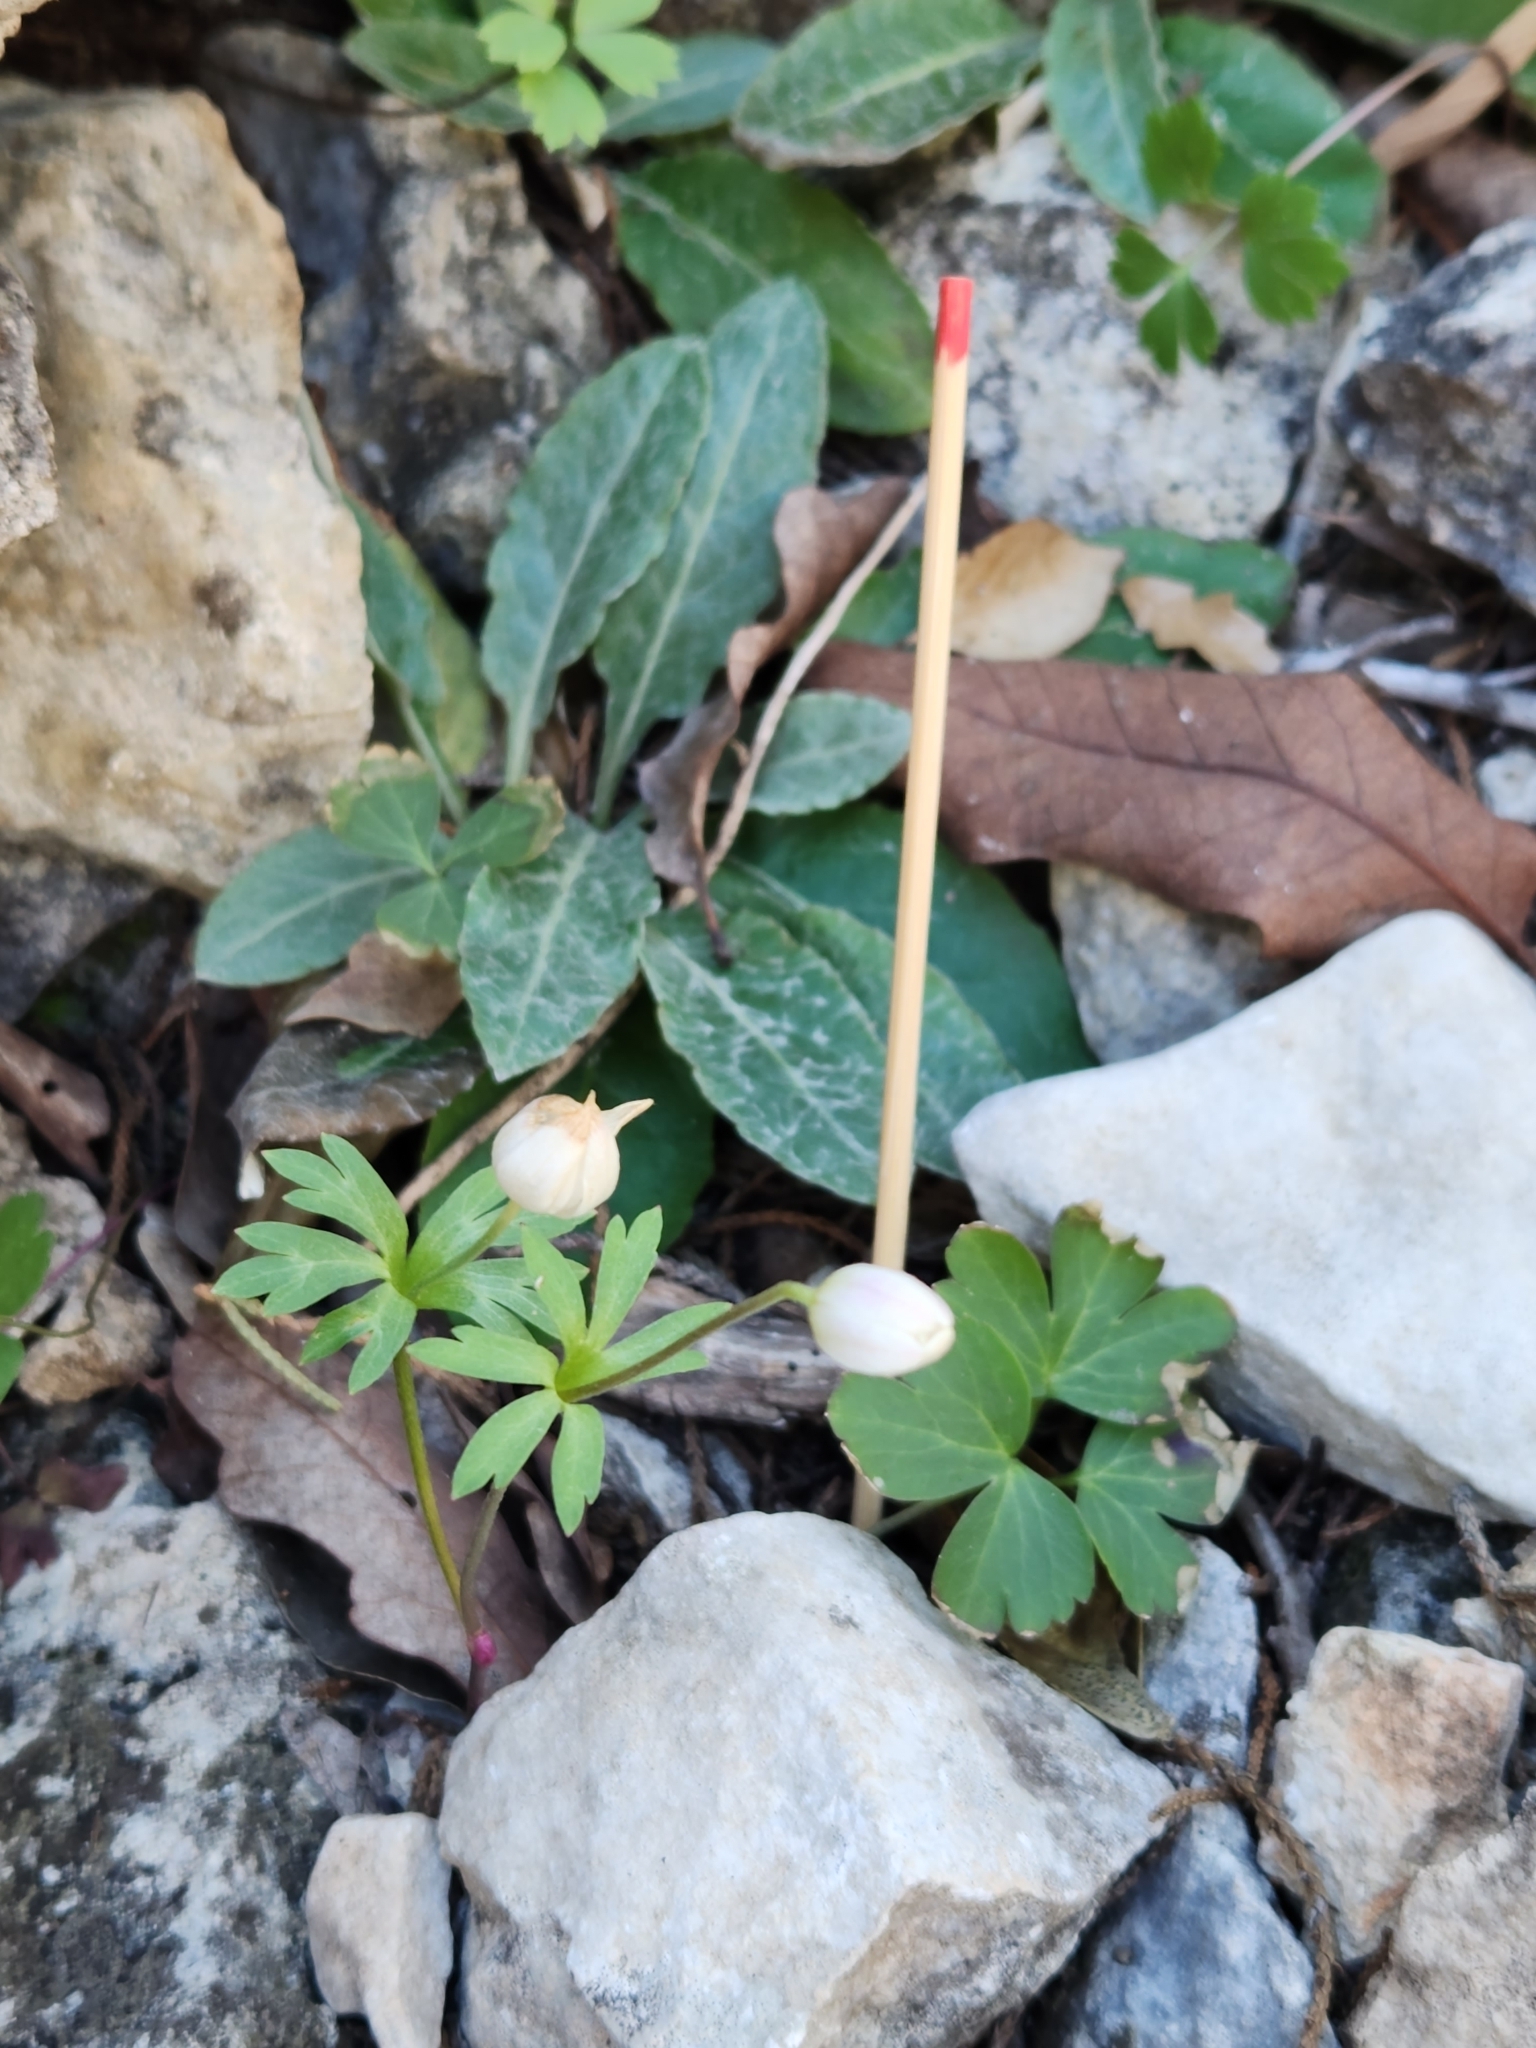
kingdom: Plantae
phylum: Tracheophyta
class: Magnoliopsida
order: Ranunculales
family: Ranunculaceae
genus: Anemone
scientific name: Anemone edwardsiana
